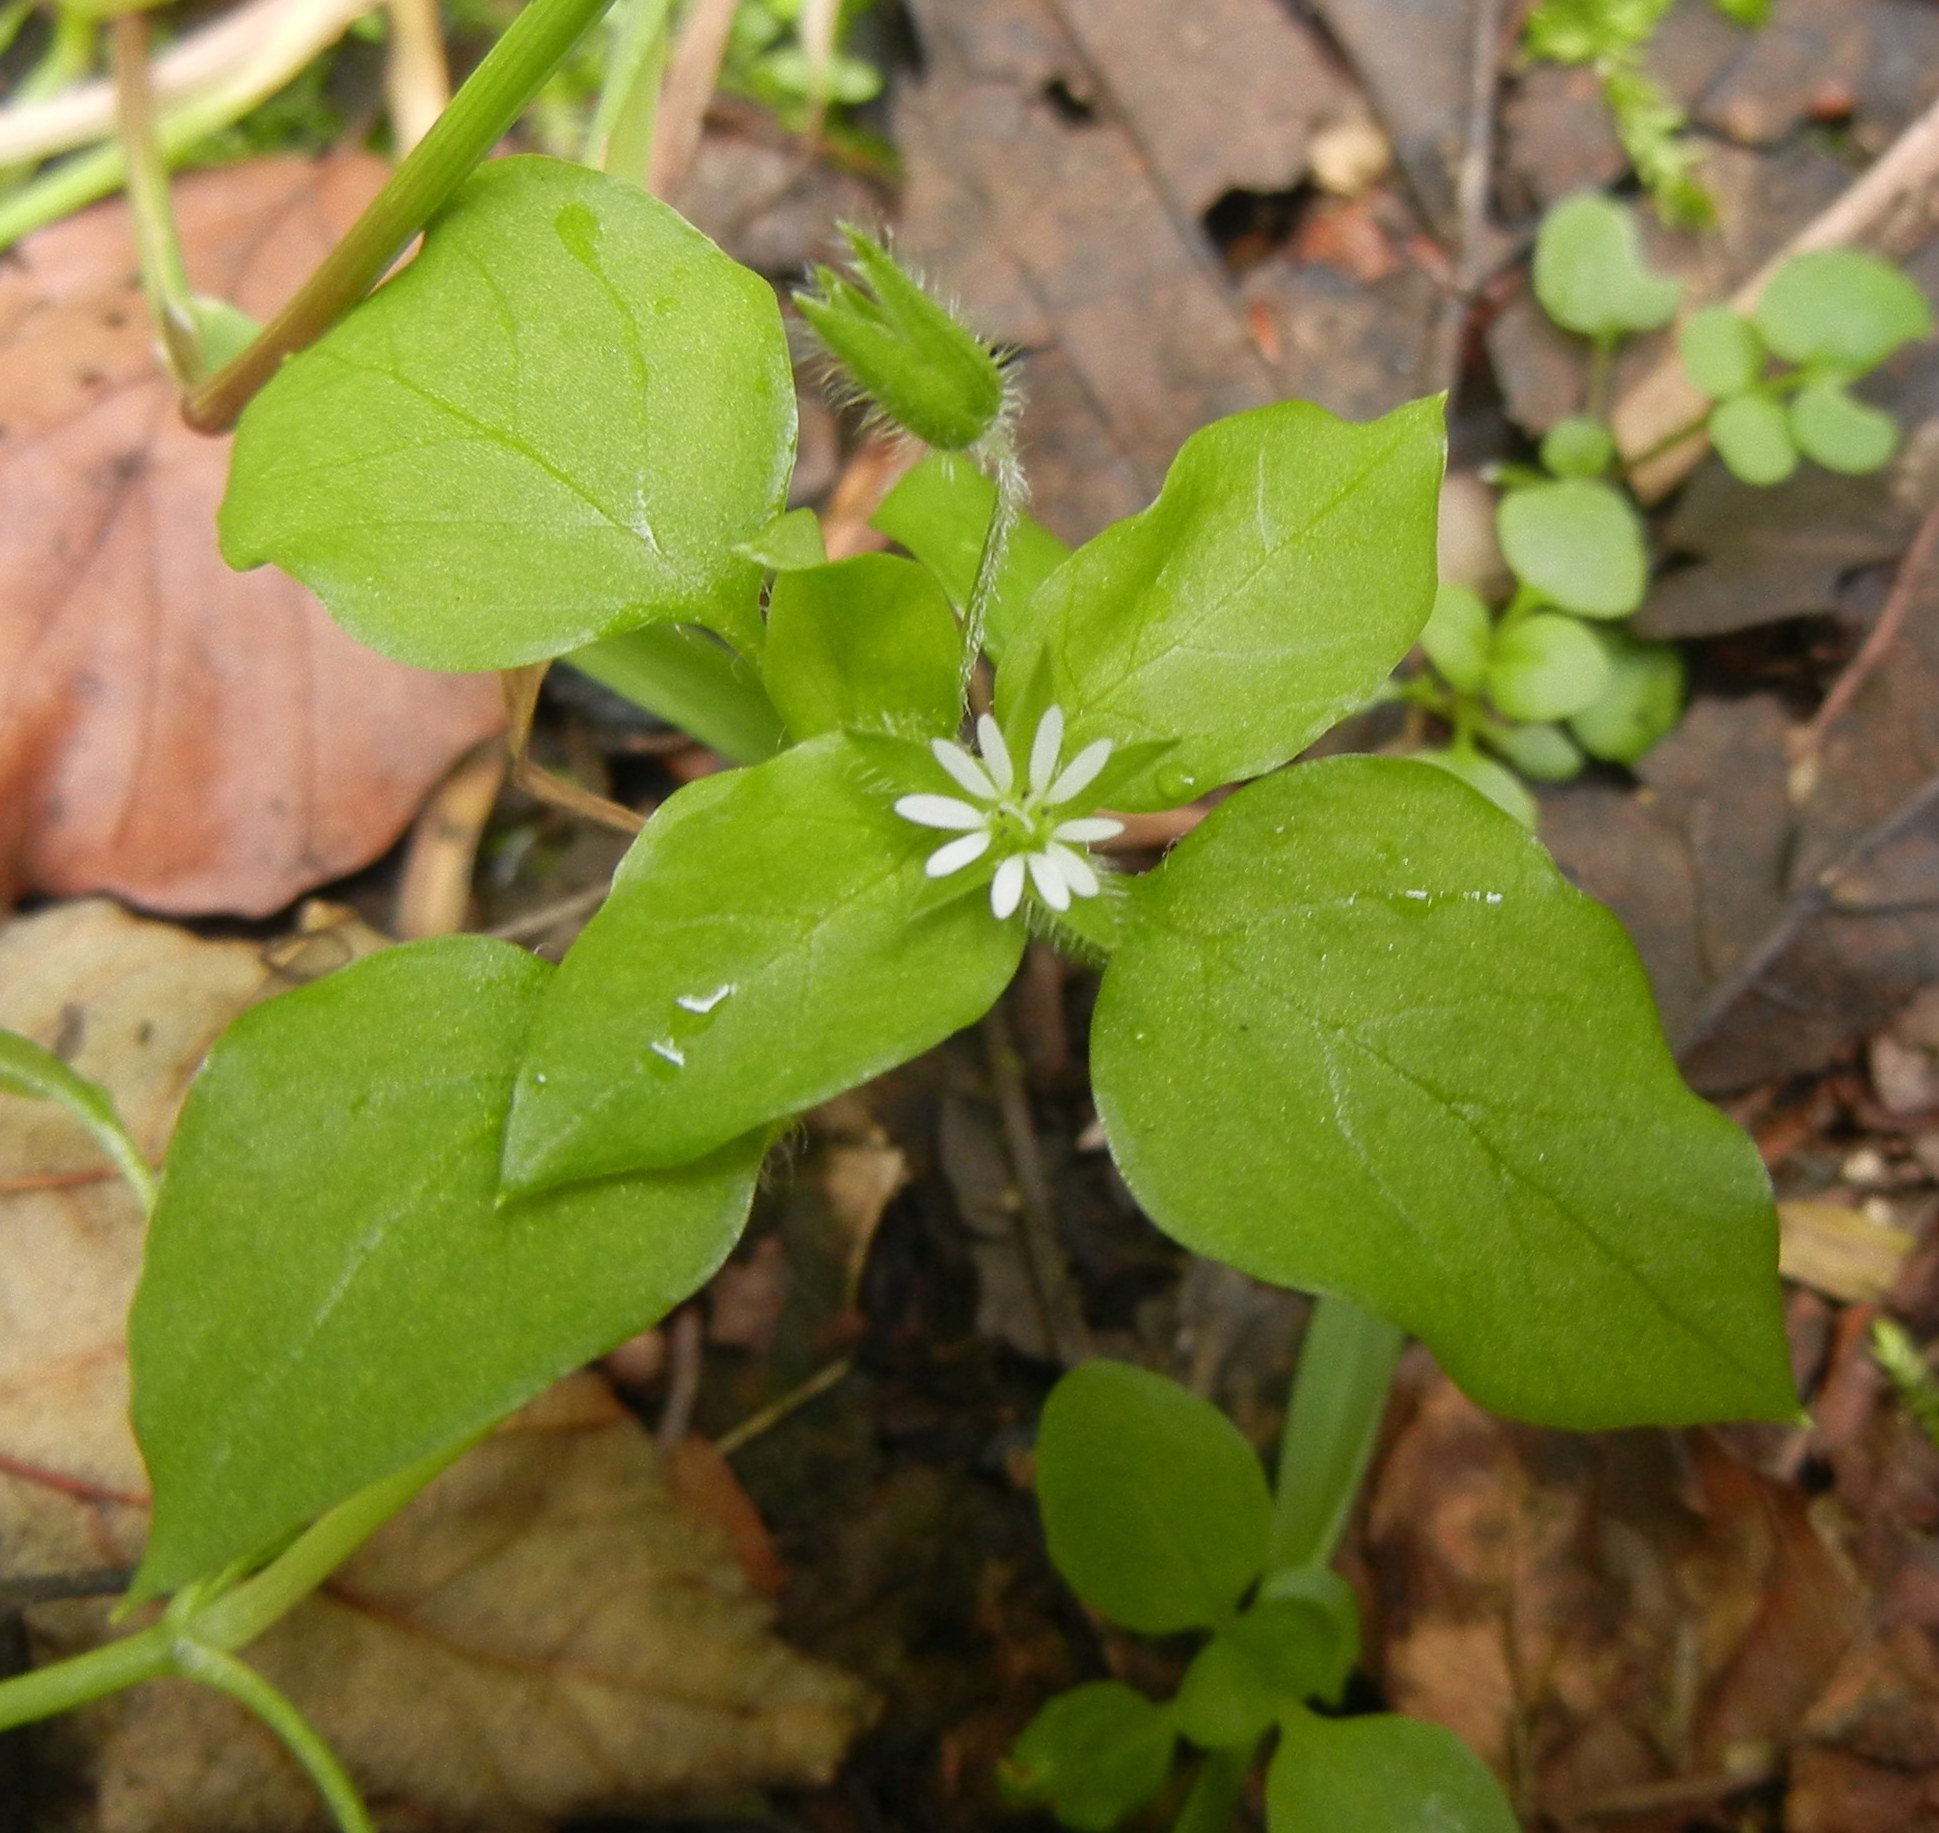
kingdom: Plantae
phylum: Tracheophyta
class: Magnoliopsida
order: Caryophyllales
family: Caryophyllaceae
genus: Stellaria
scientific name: Stellaria media
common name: Common chickweed
